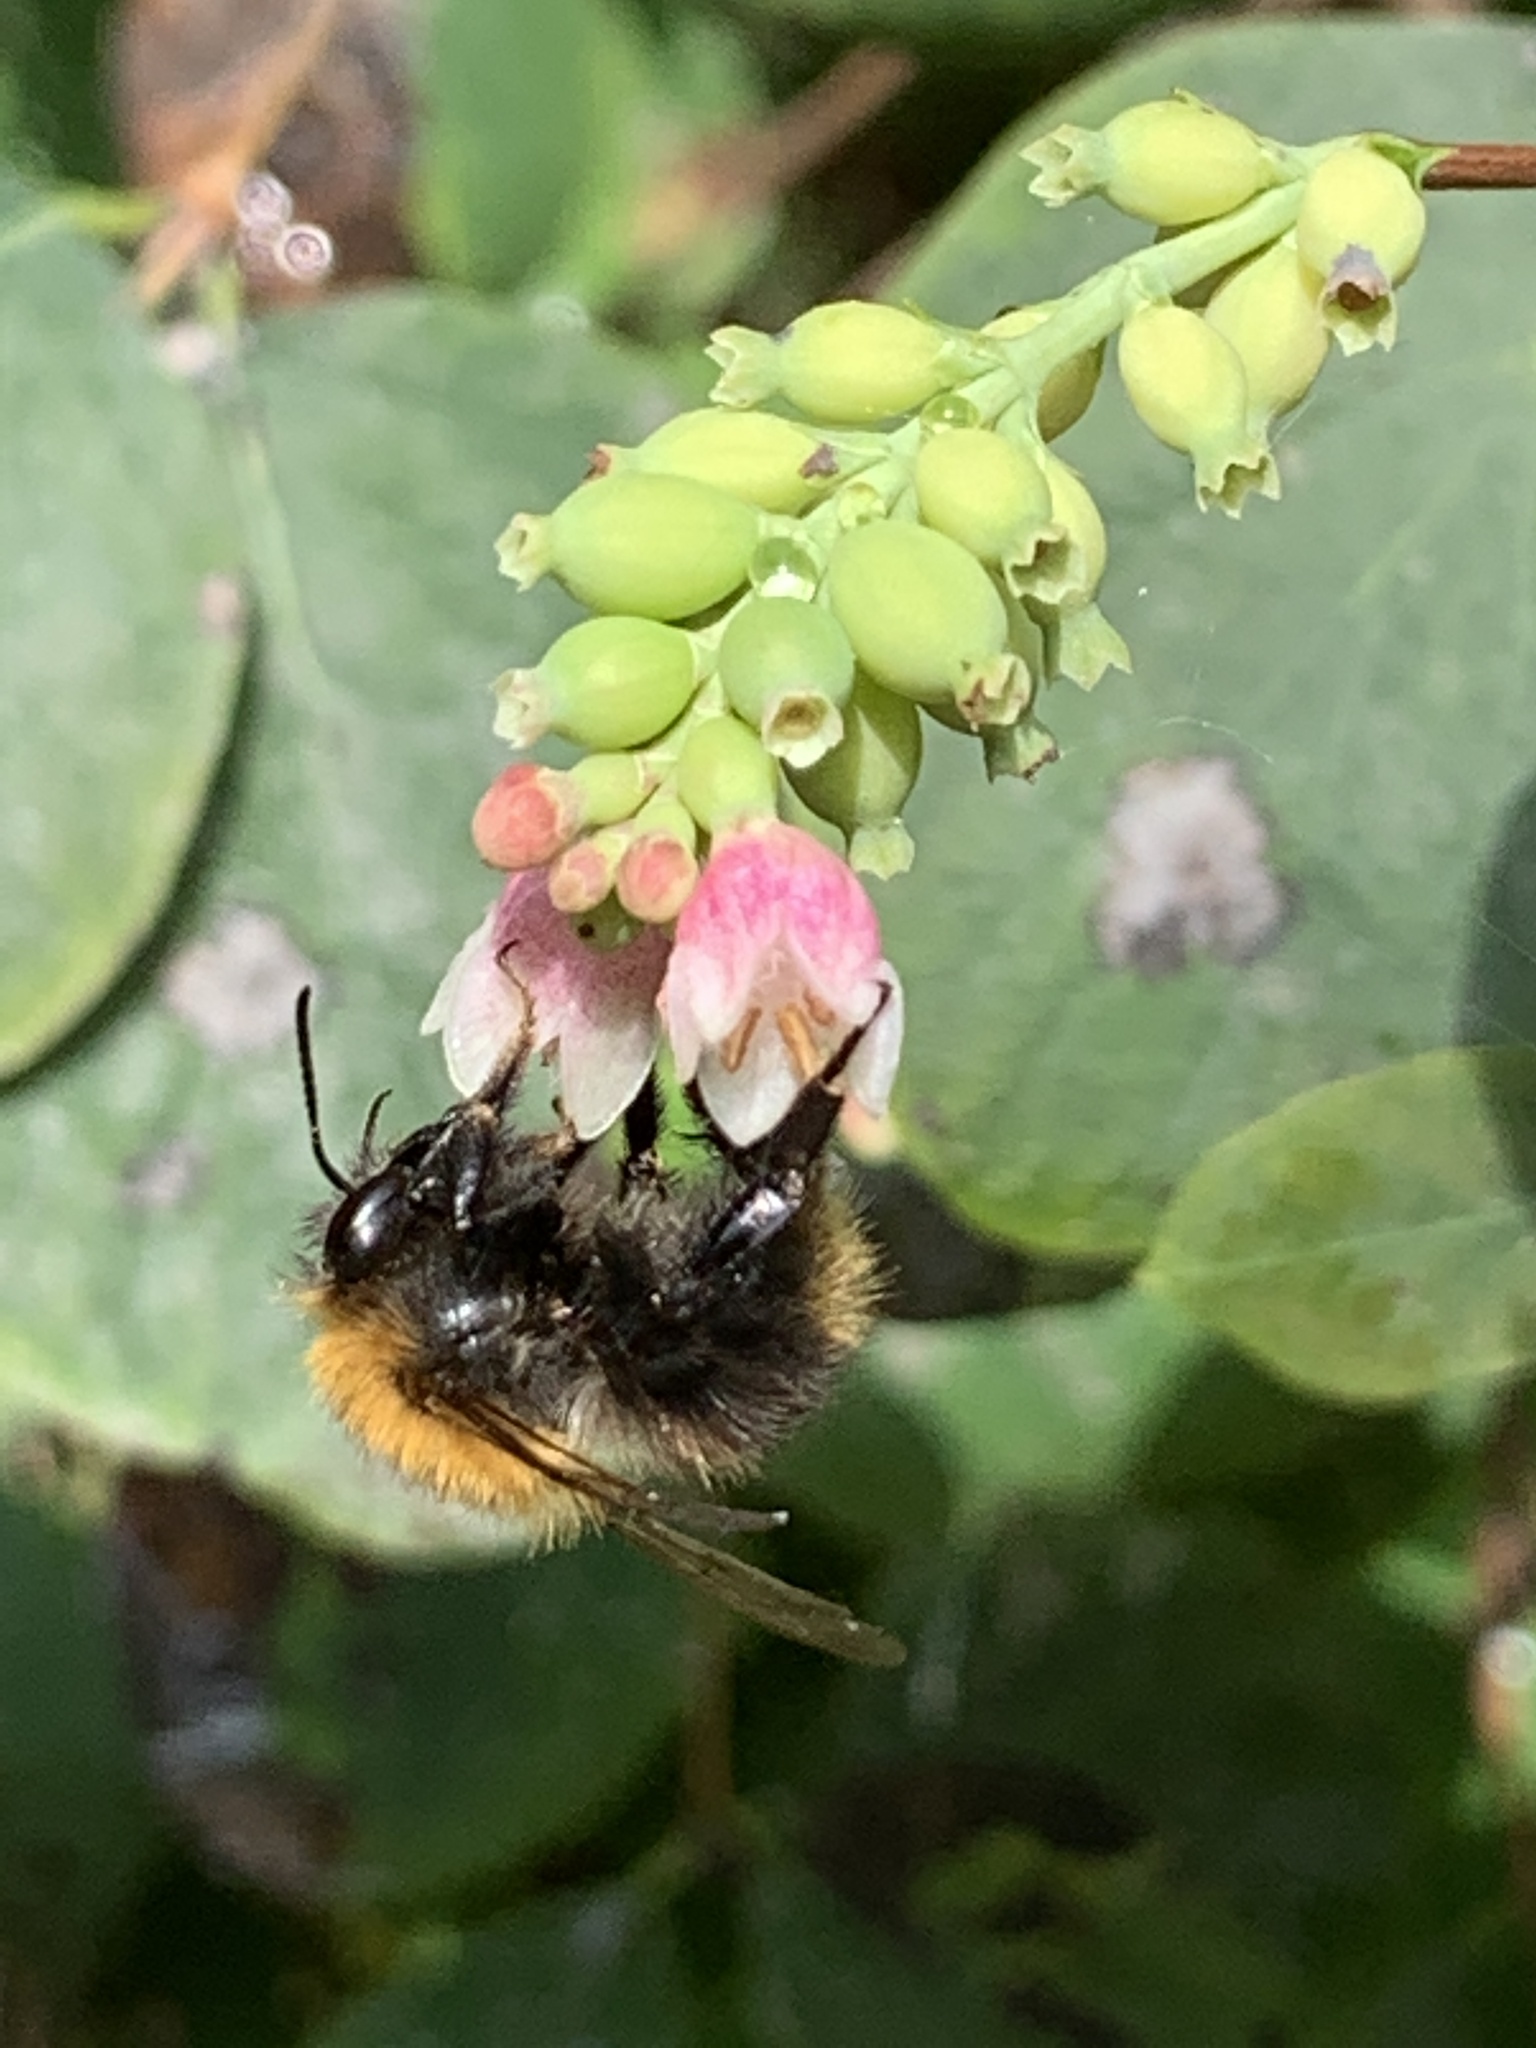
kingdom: Animalia
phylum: Arthropoda
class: Insecta
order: Hymenoptera
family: Apidae
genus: Bombus
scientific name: Bombus pascuorum
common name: Common carder bee
